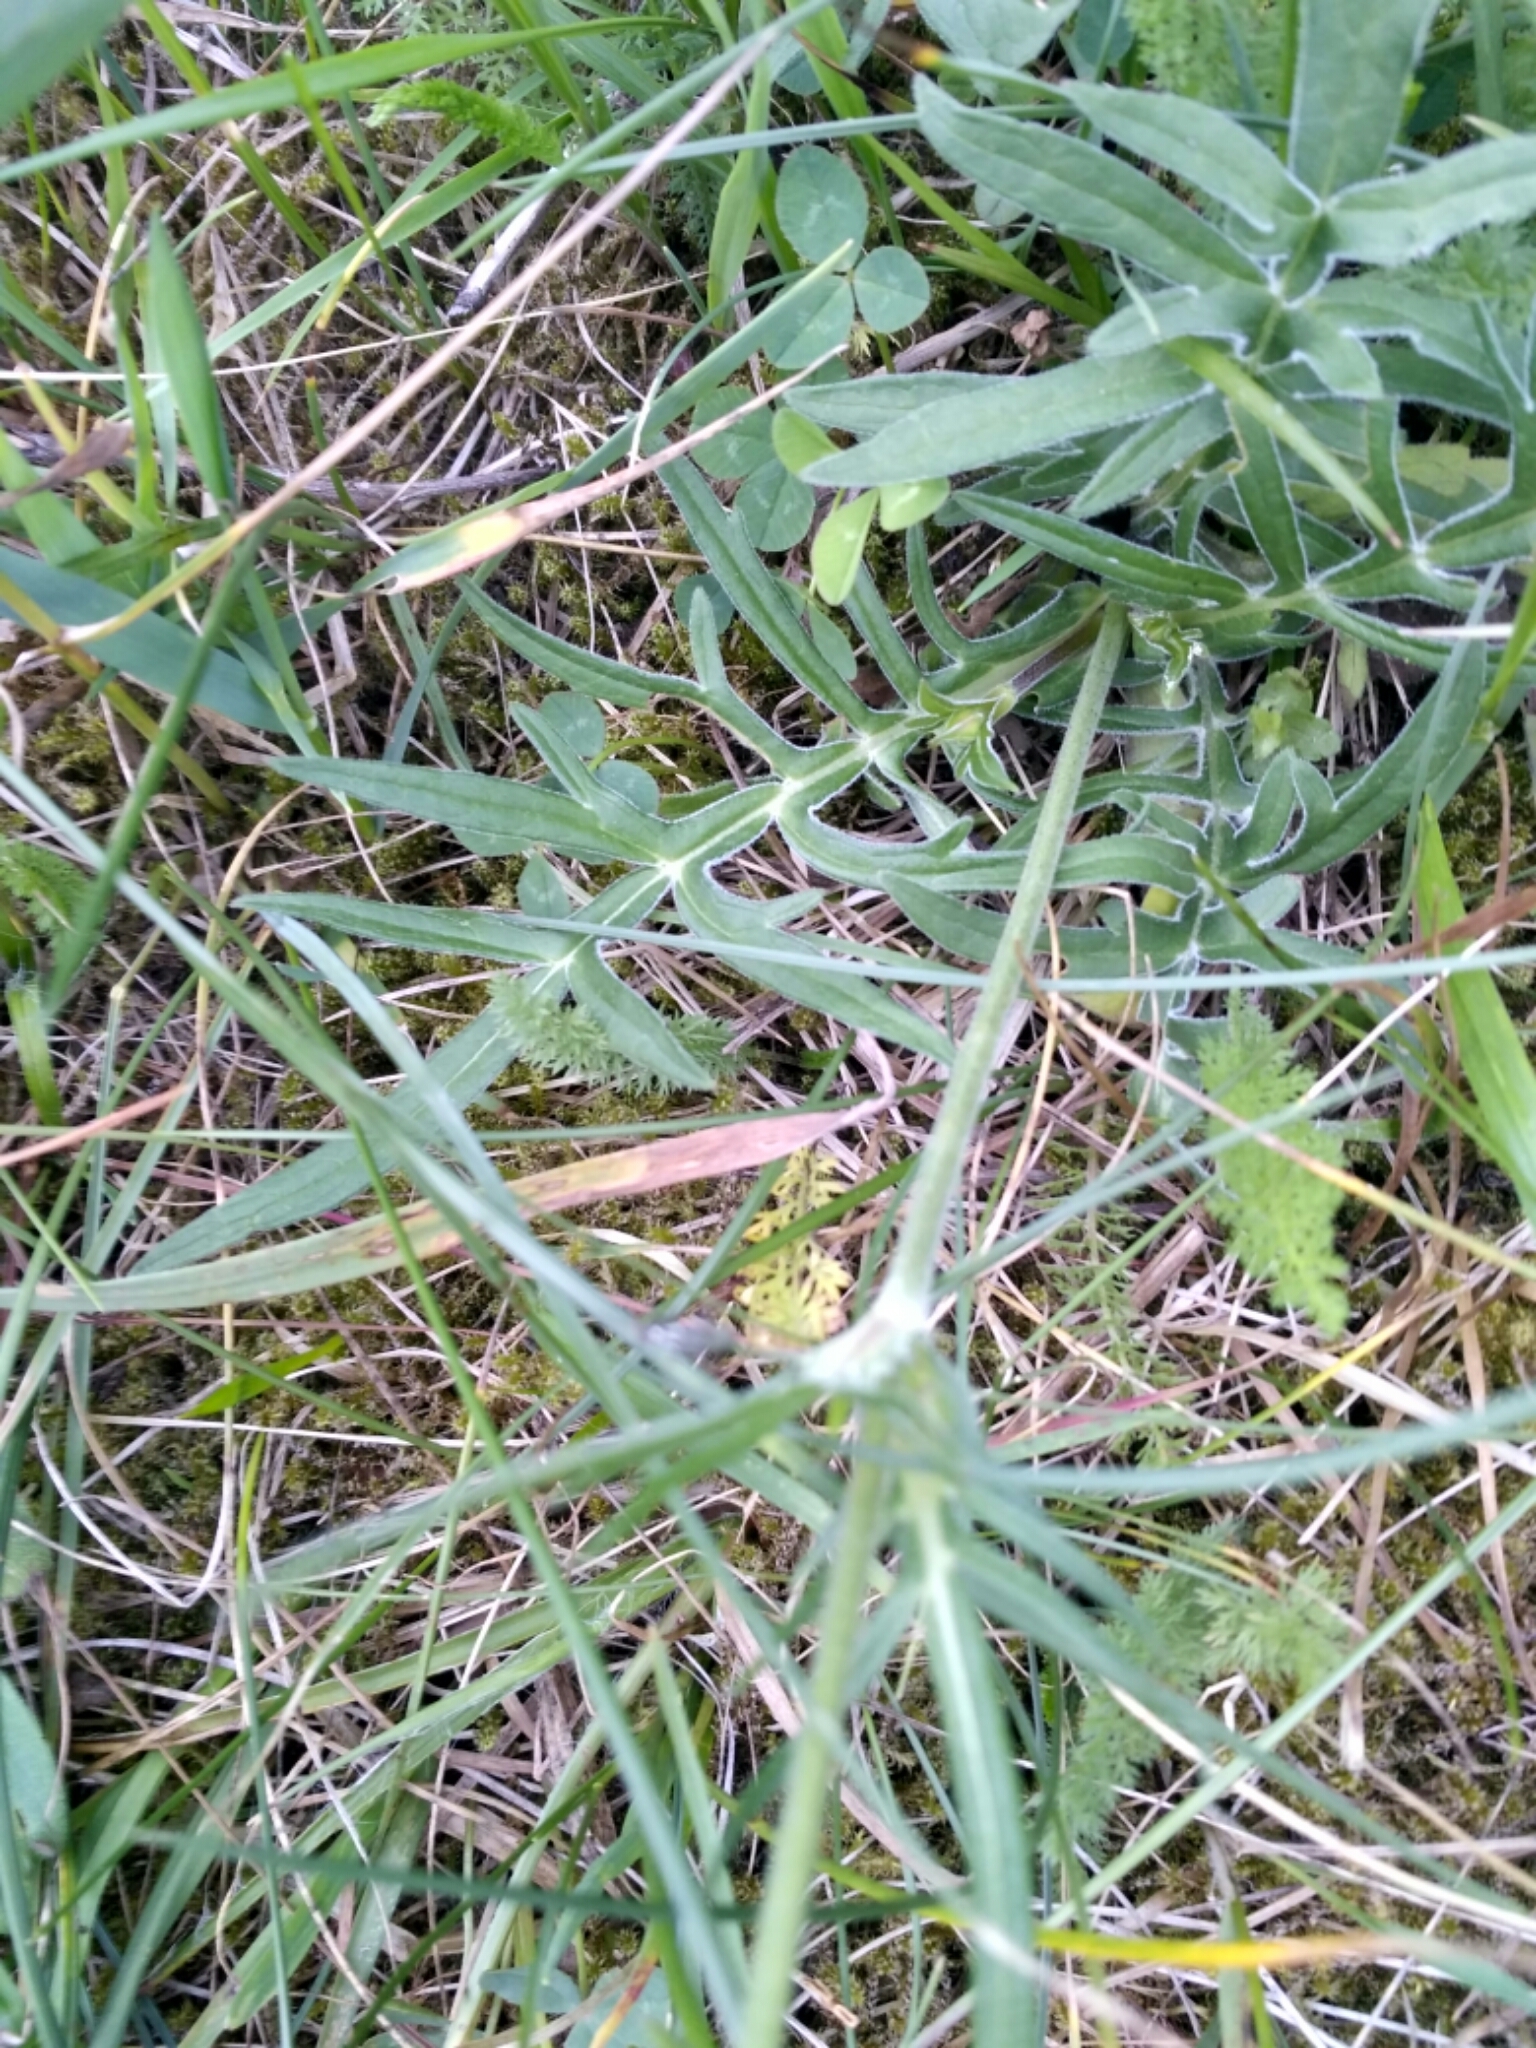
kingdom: Plantae
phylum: Tracheophyta
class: Magnoliopsida
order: Dipsacales
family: Caprifoliaceae
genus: Knautia
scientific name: Knautia arvensis
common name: Field scabiosa
